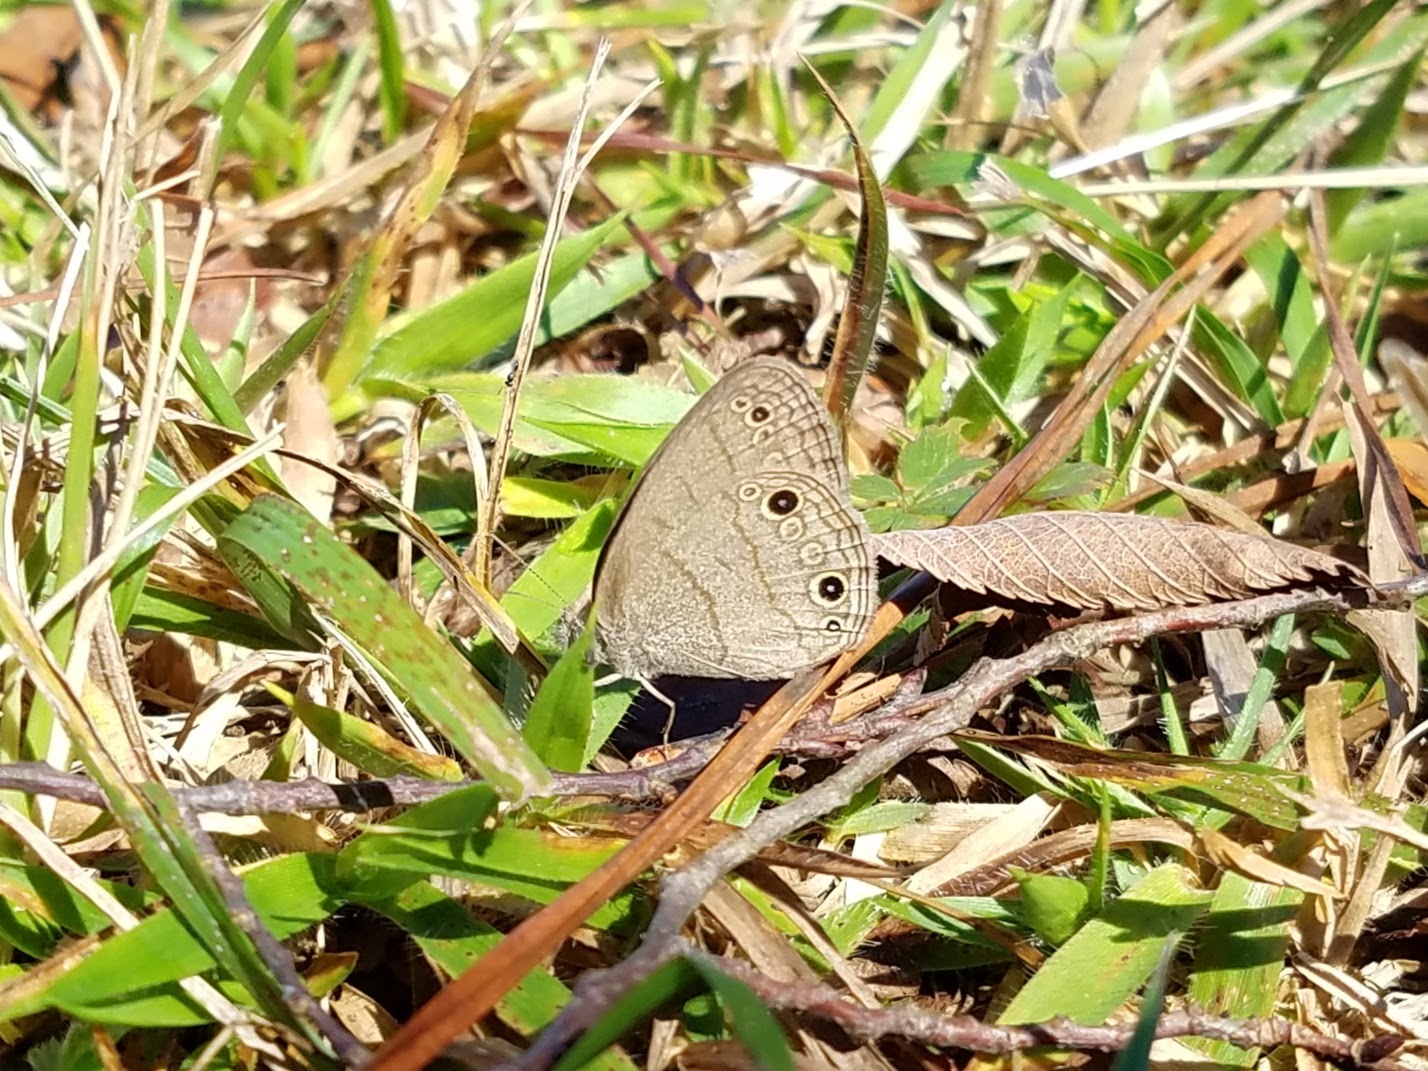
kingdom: Animalia
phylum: Arthropoda
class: Insecta
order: Lepidoptera
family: Nymphalidae
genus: Hermeuptychia
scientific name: Hermeuptychia hermes
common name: Hermes satyr
